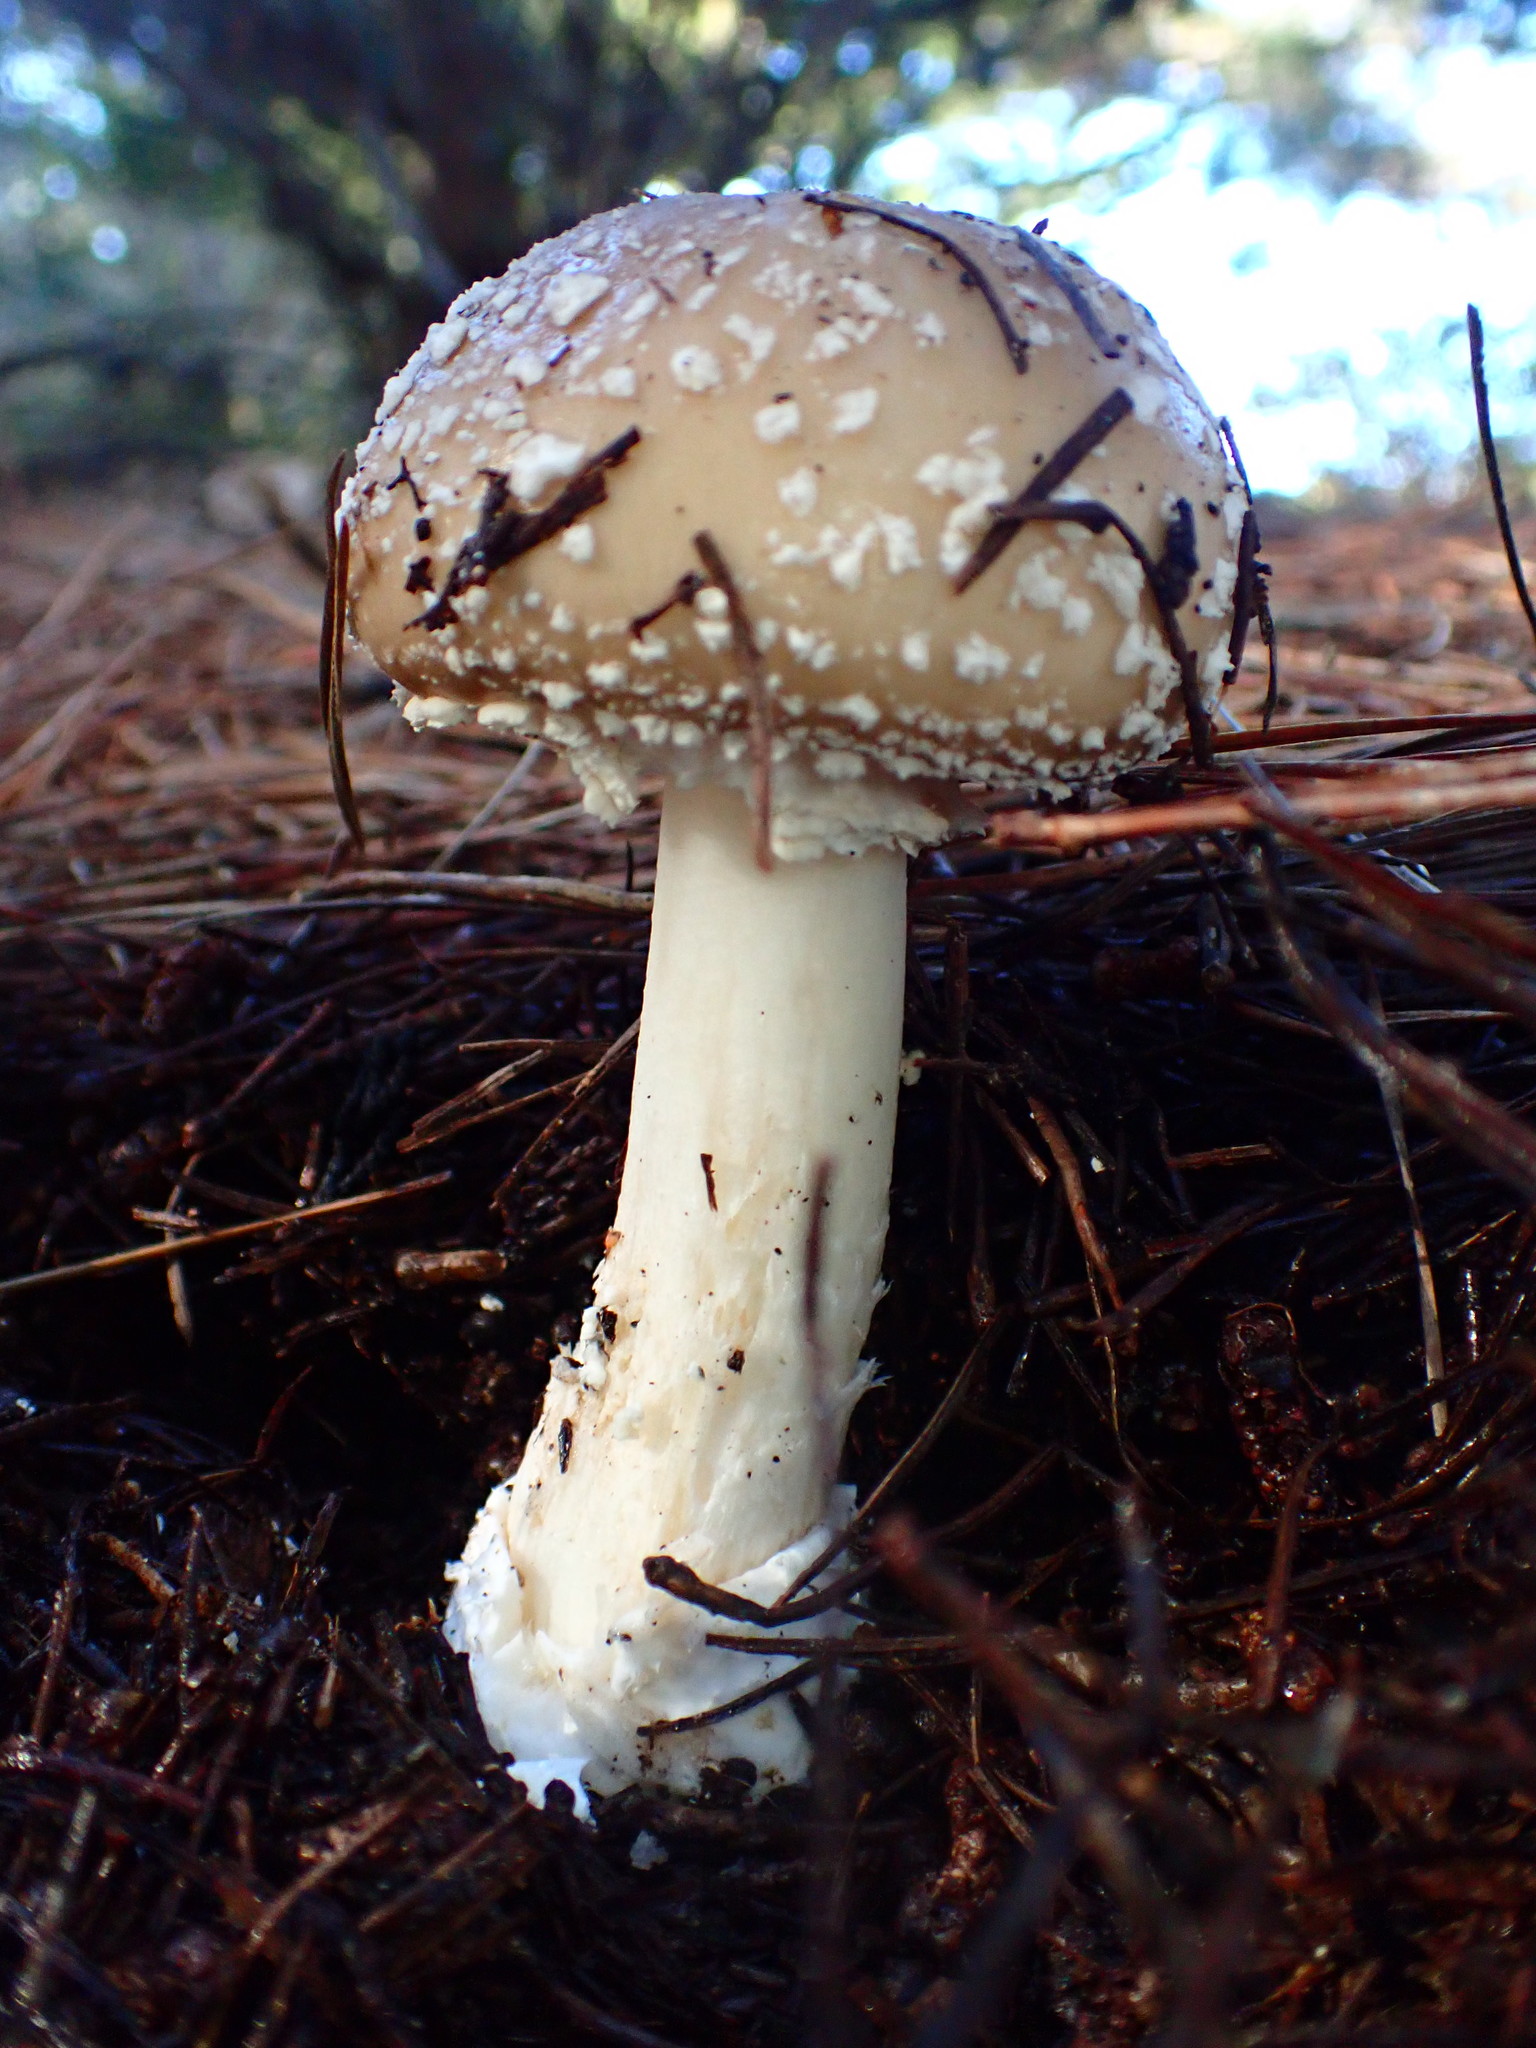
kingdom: Fungi
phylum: Basidiomycota
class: Agaricomycetes
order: Agaricales
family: Amanitaceae
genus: Amanita
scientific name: Amanita pantherinoides
